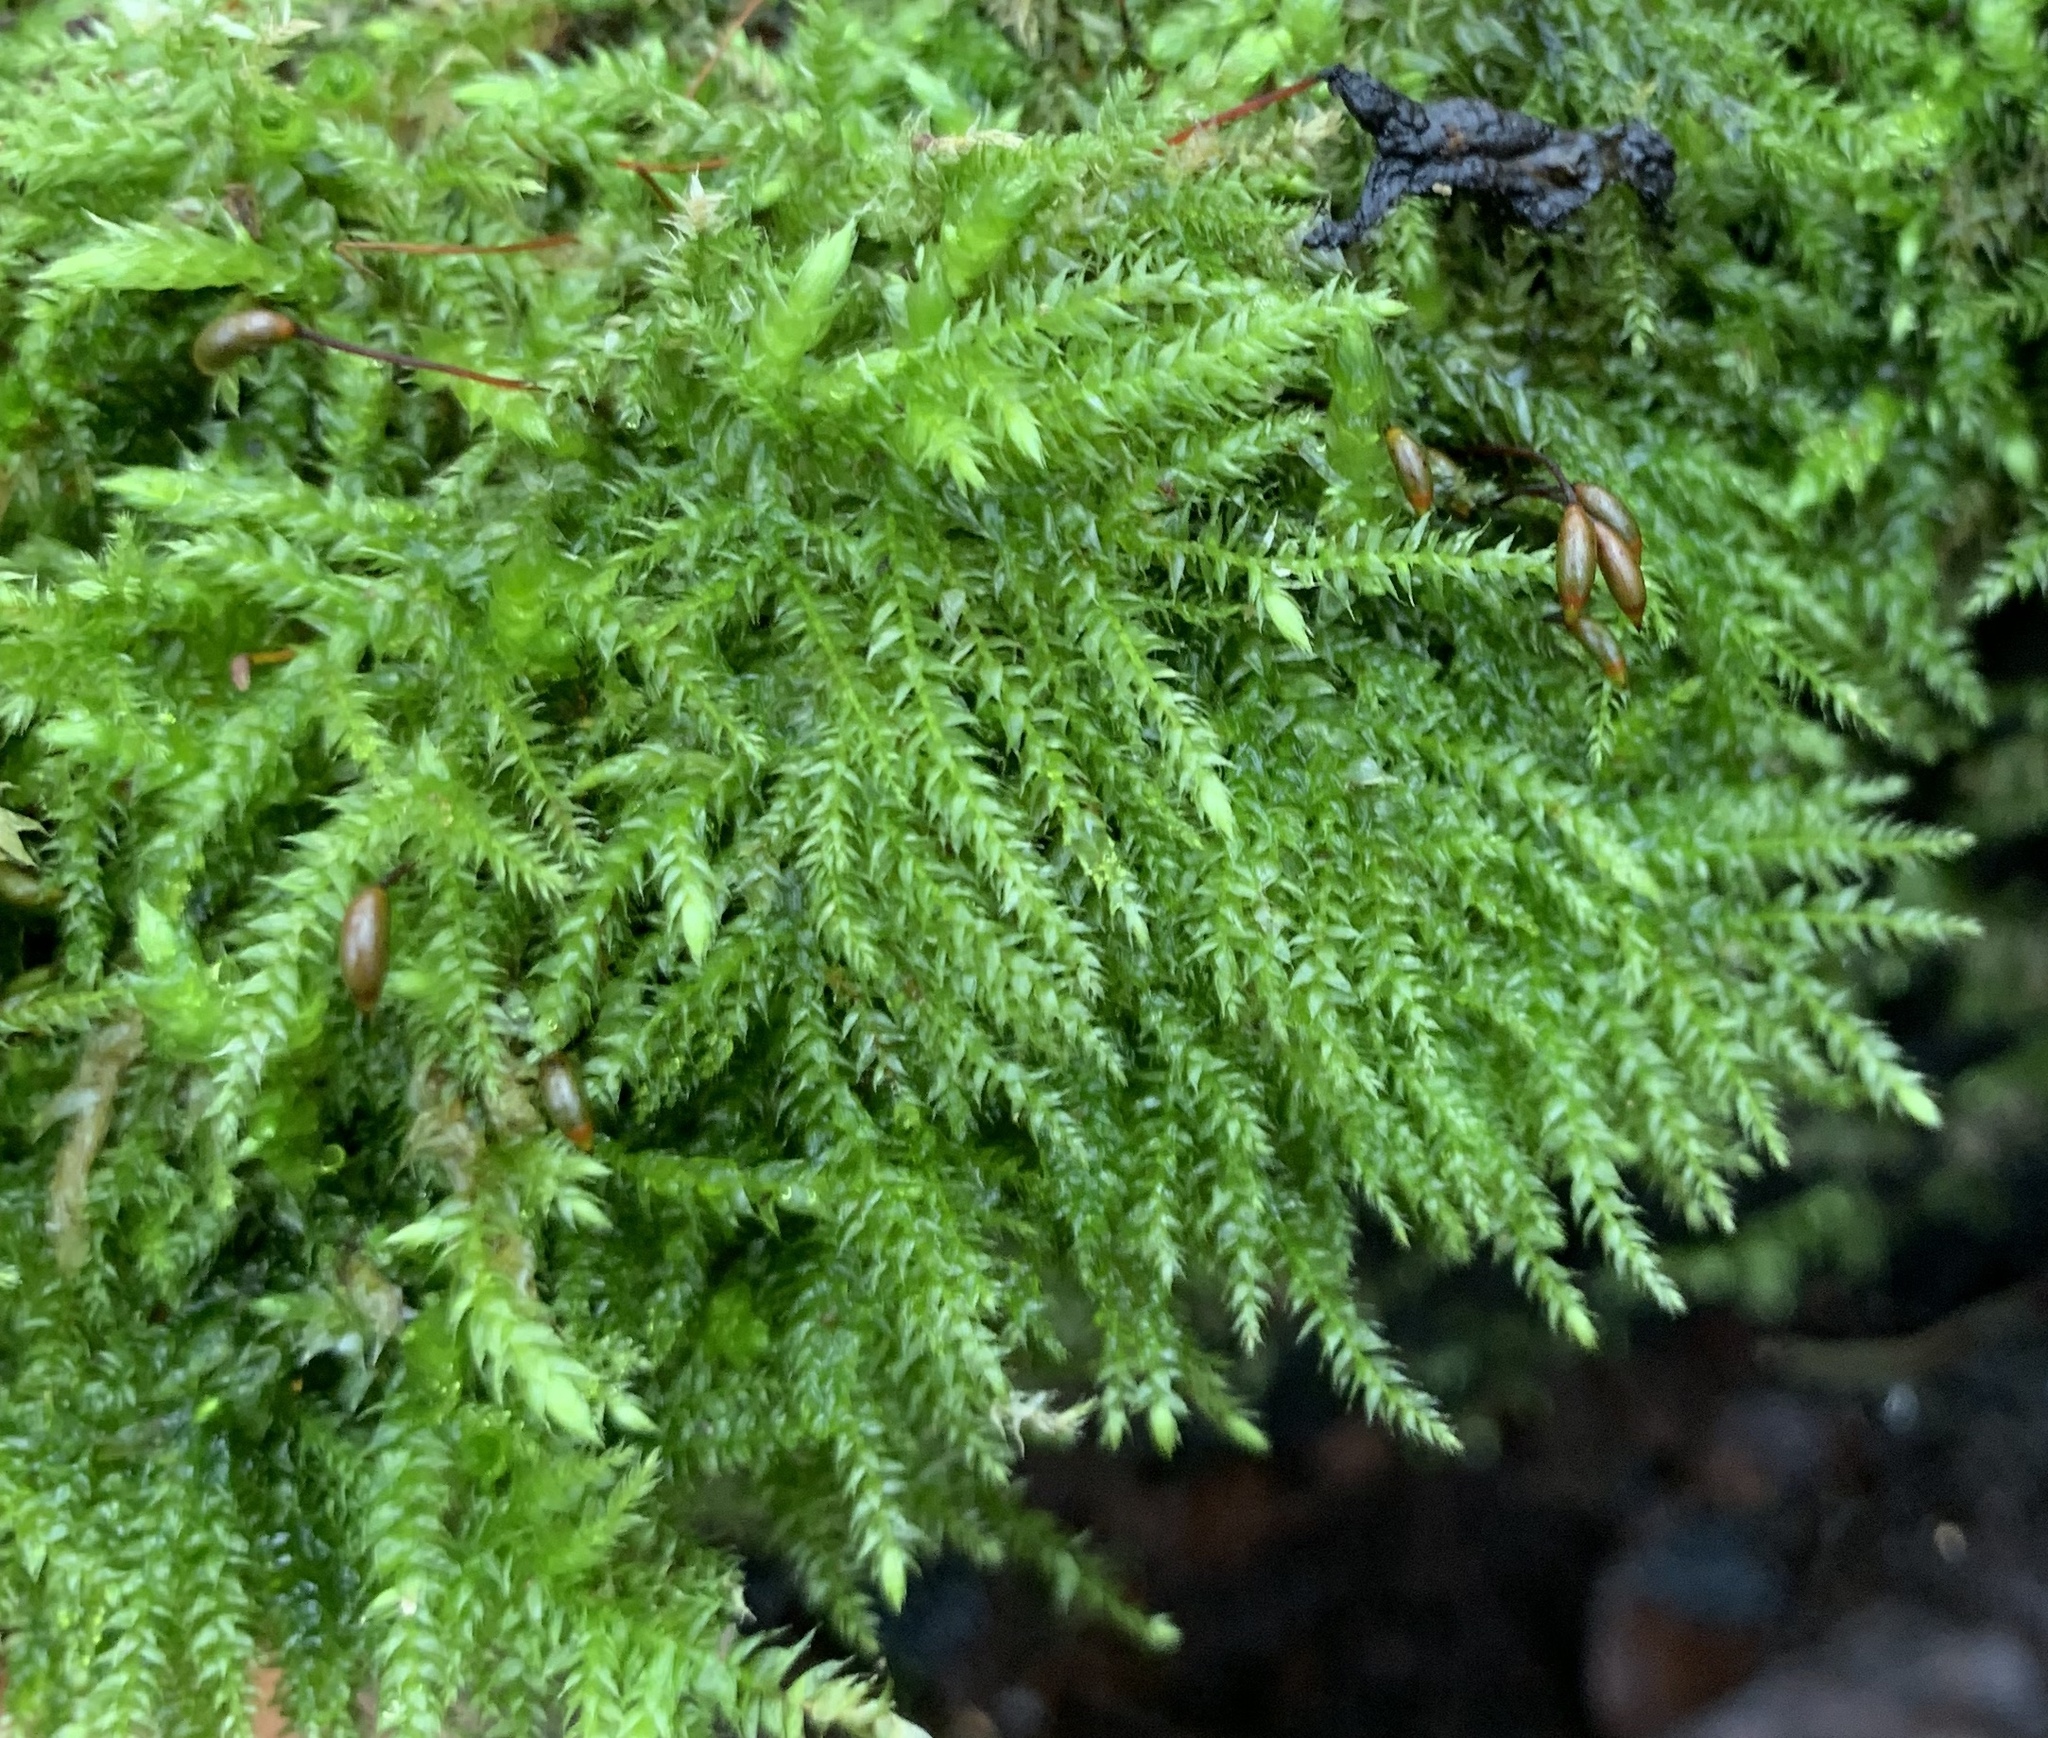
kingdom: Plantae
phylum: Bryophyta
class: Bryopsida
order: Hypnales
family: Brachytheciaceae
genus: Brachythecium
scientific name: Brachythecium rutabulum
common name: Rough-stalked feather-moss
